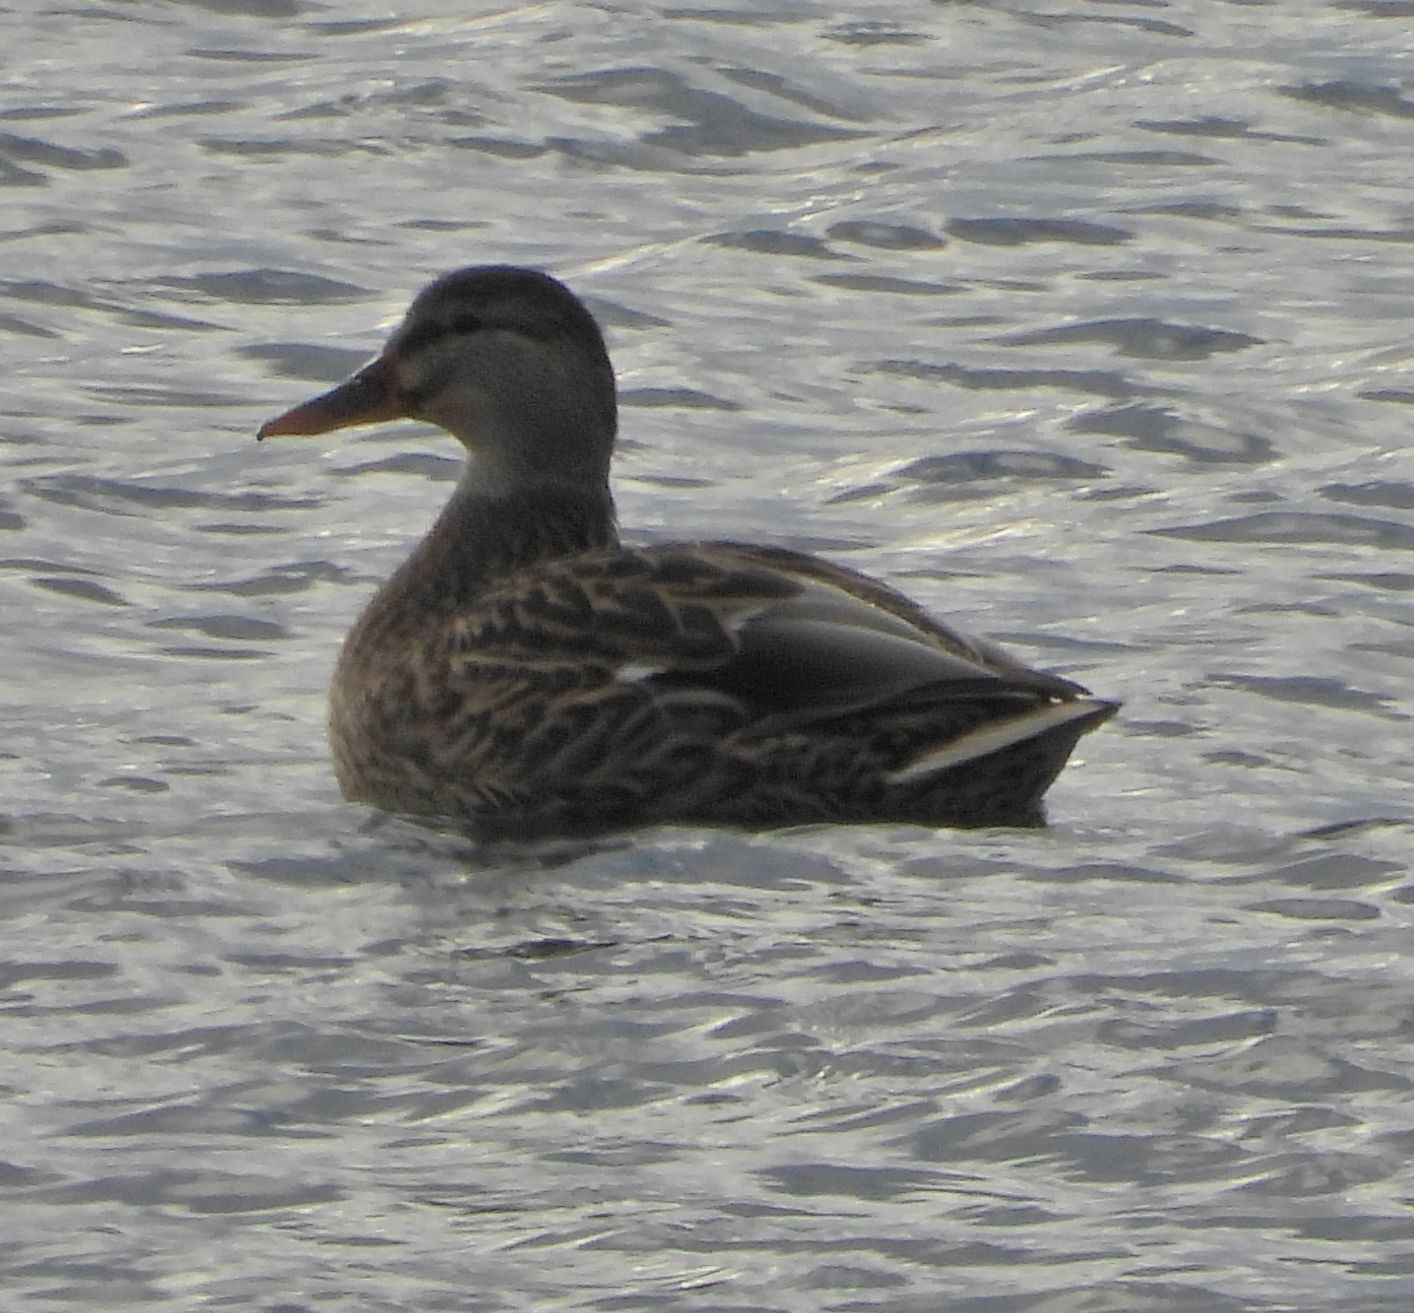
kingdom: Animalia
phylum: Chordata
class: Aves
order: Anseriformes
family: Anatidae
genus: Anas
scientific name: Anas platyrhynchos
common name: Mallard
